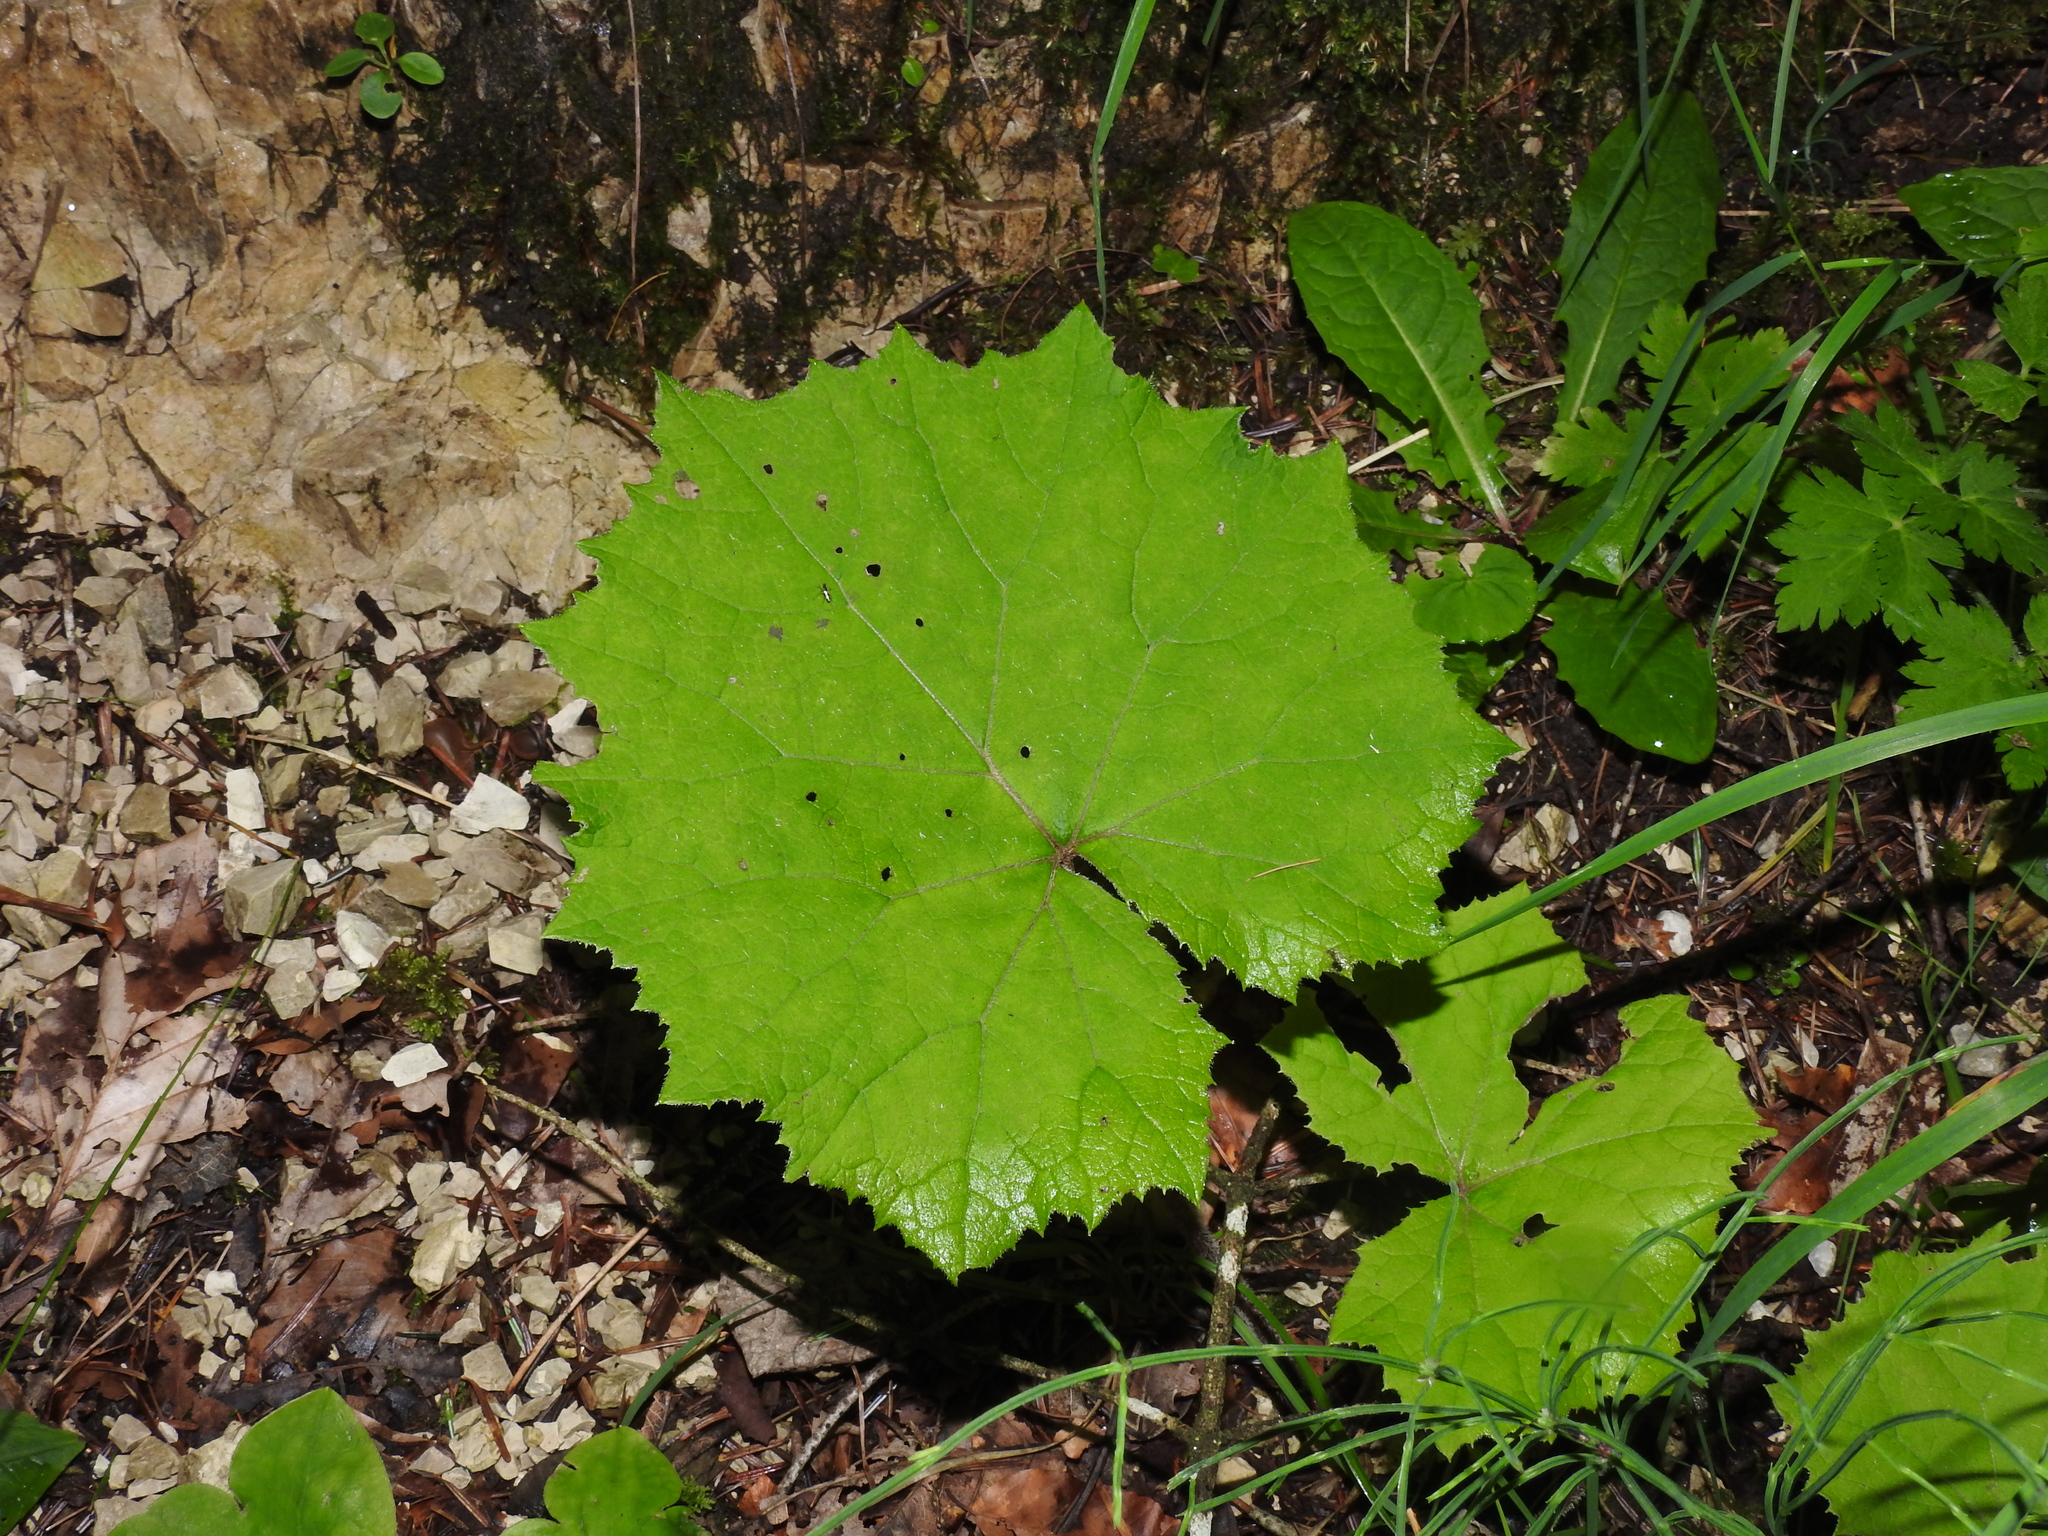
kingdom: Plantae
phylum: Tracheophyta
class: Magnoliopsida
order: Asterales
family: Asteraceae
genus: Petasites
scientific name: Petasites albus
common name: White butterbur
